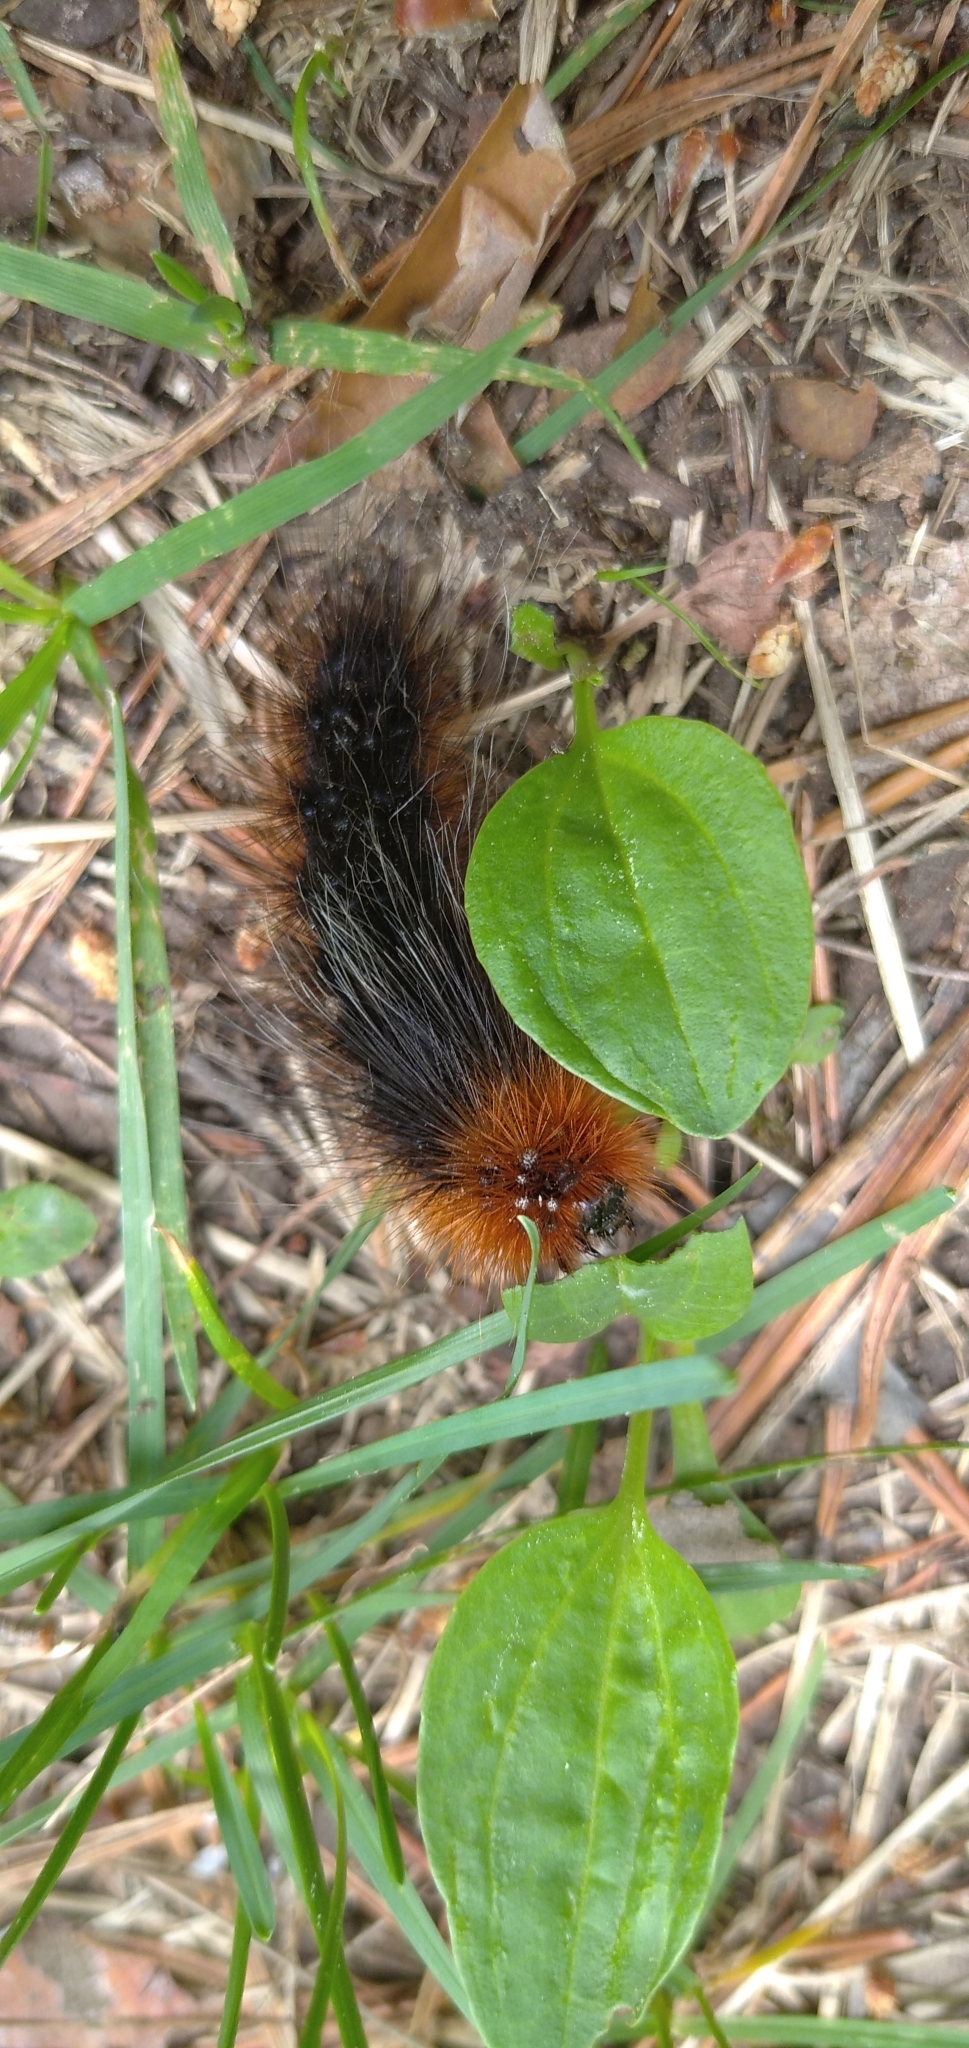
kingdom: Animalia
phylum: Arthropoda
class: Insecta
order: Lepidoptera
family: Erebidae
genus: Arctia
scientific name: Arctia caja
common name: Garden tiger
